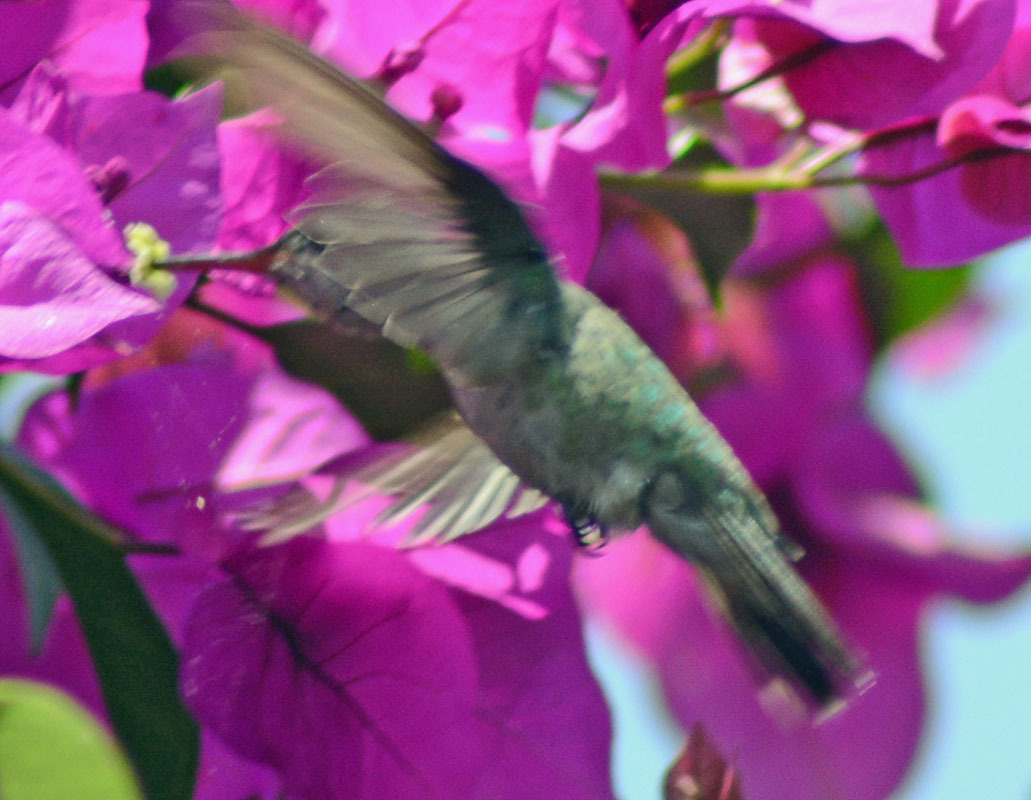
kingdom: Animalia
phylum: Chordata
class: Aves
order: Apodiformes
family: Trochilidae
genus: Cynanthus
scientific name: Cynanthus latirostris
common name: Broad-billed hummingbird
